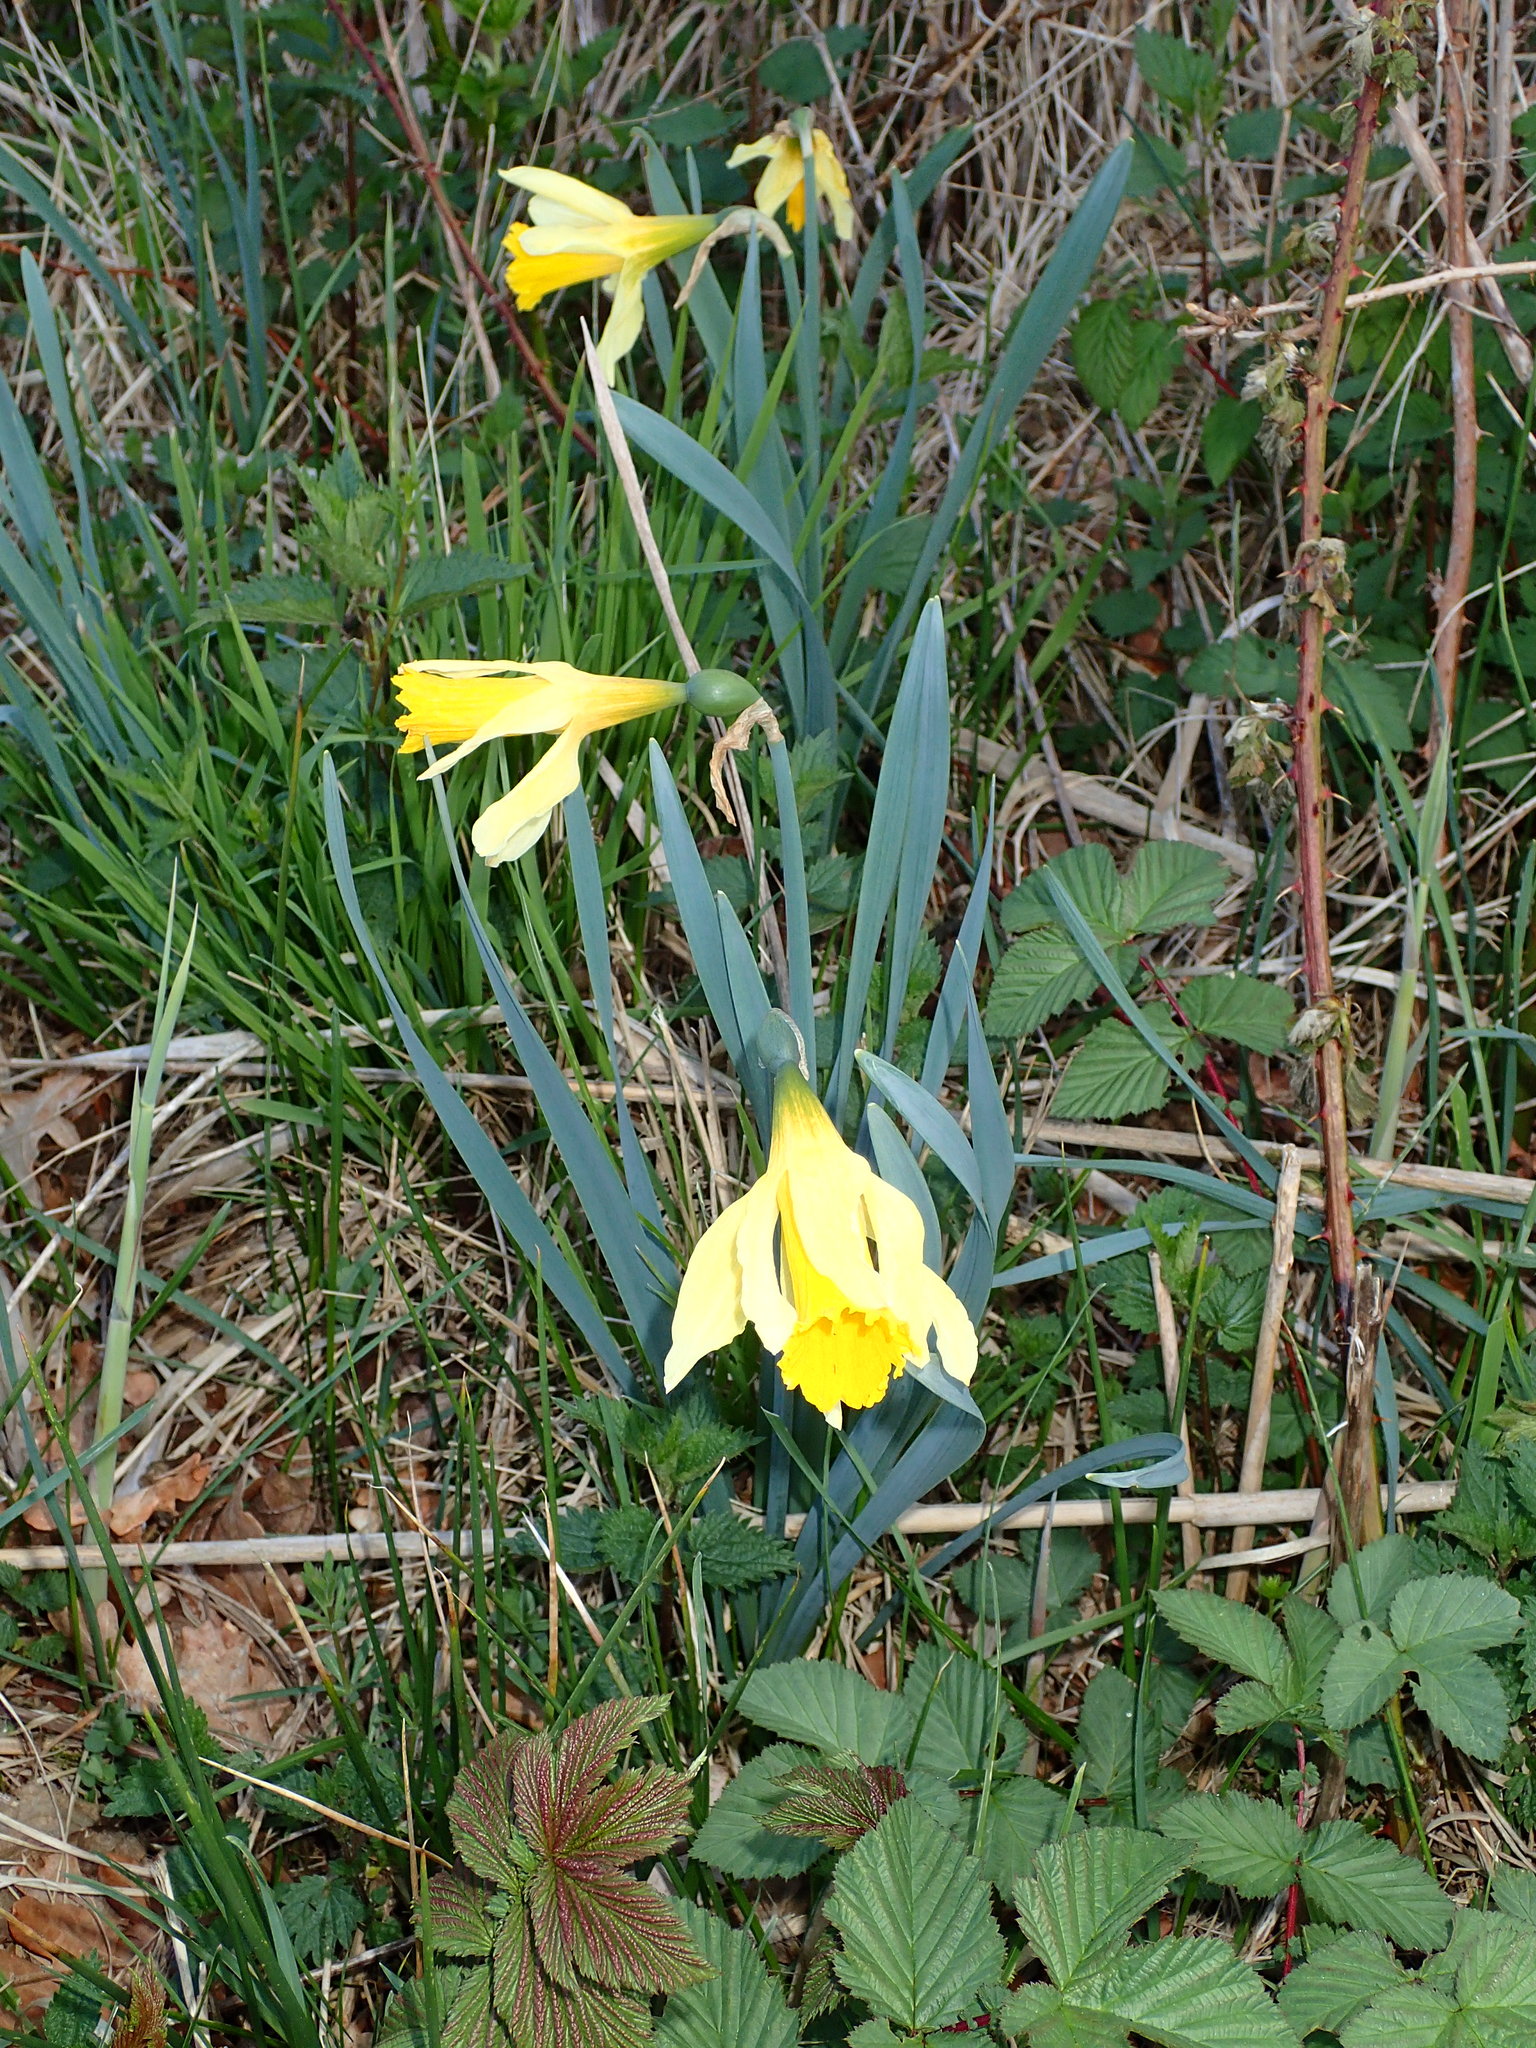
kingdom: Plantae
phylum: Tracheophyta
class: Liliopsida
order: Asparagales
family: Amaryllidaceae
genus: Narcissus
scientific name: Narcissus pseudonarcissus
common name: Daffodil
